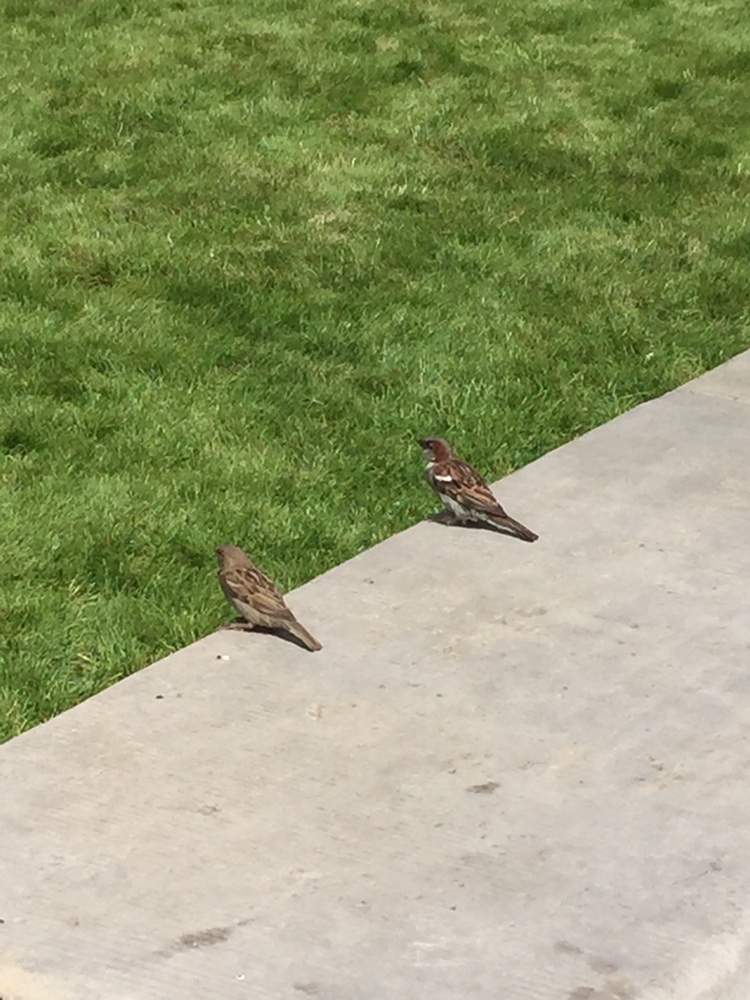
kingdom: Animalia
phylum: Chordata
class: Aves
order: Passeriformes
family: Passeridae
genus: Passer
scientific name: Passer domesticus
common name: House sparrow
